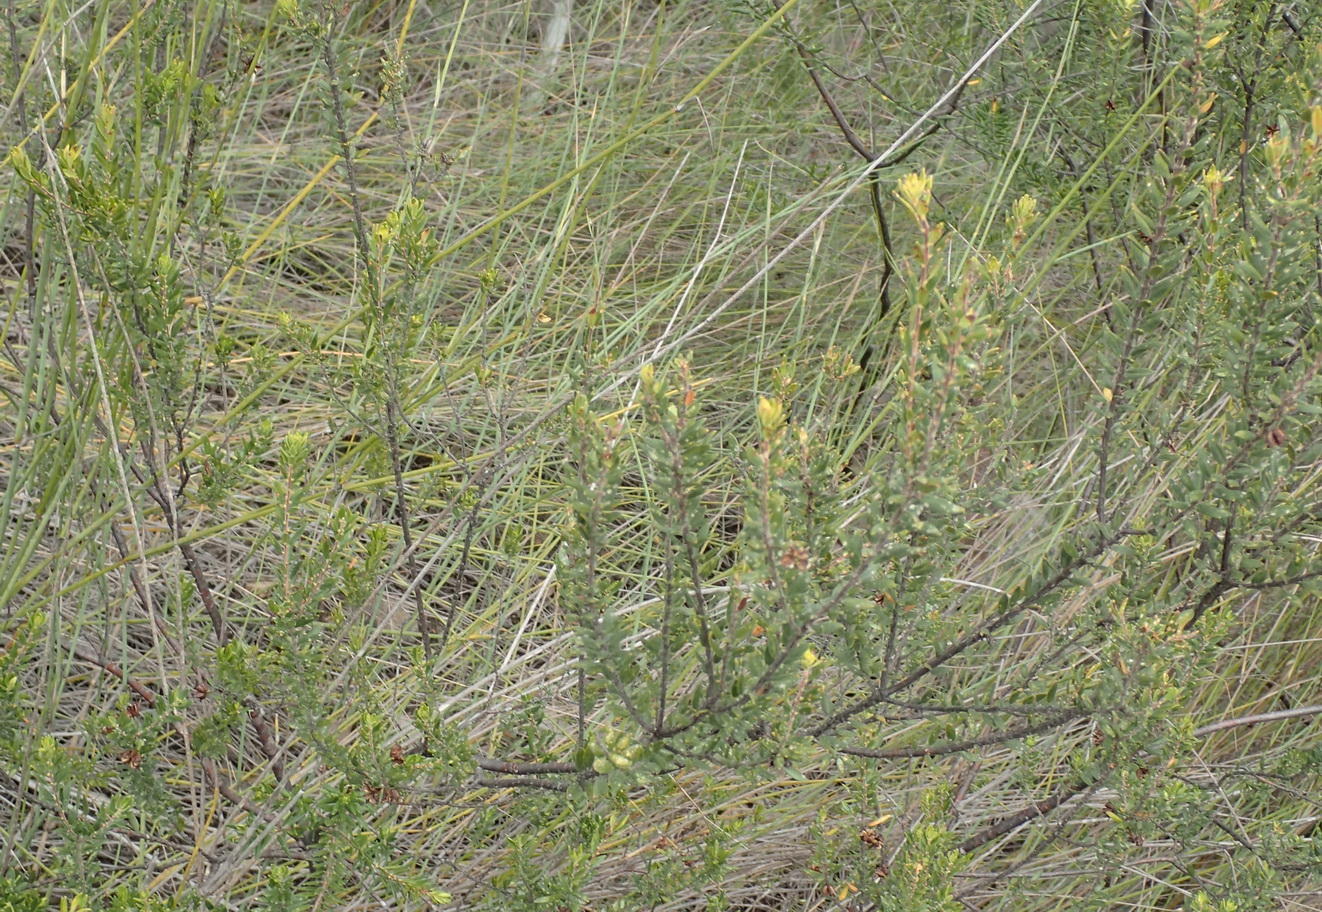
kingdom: Plantae
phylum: Tracheophyta
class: Magnoliopsida
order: Sapindales
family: Rutaceae
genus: Agathosma
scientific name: Agathosma ovata
